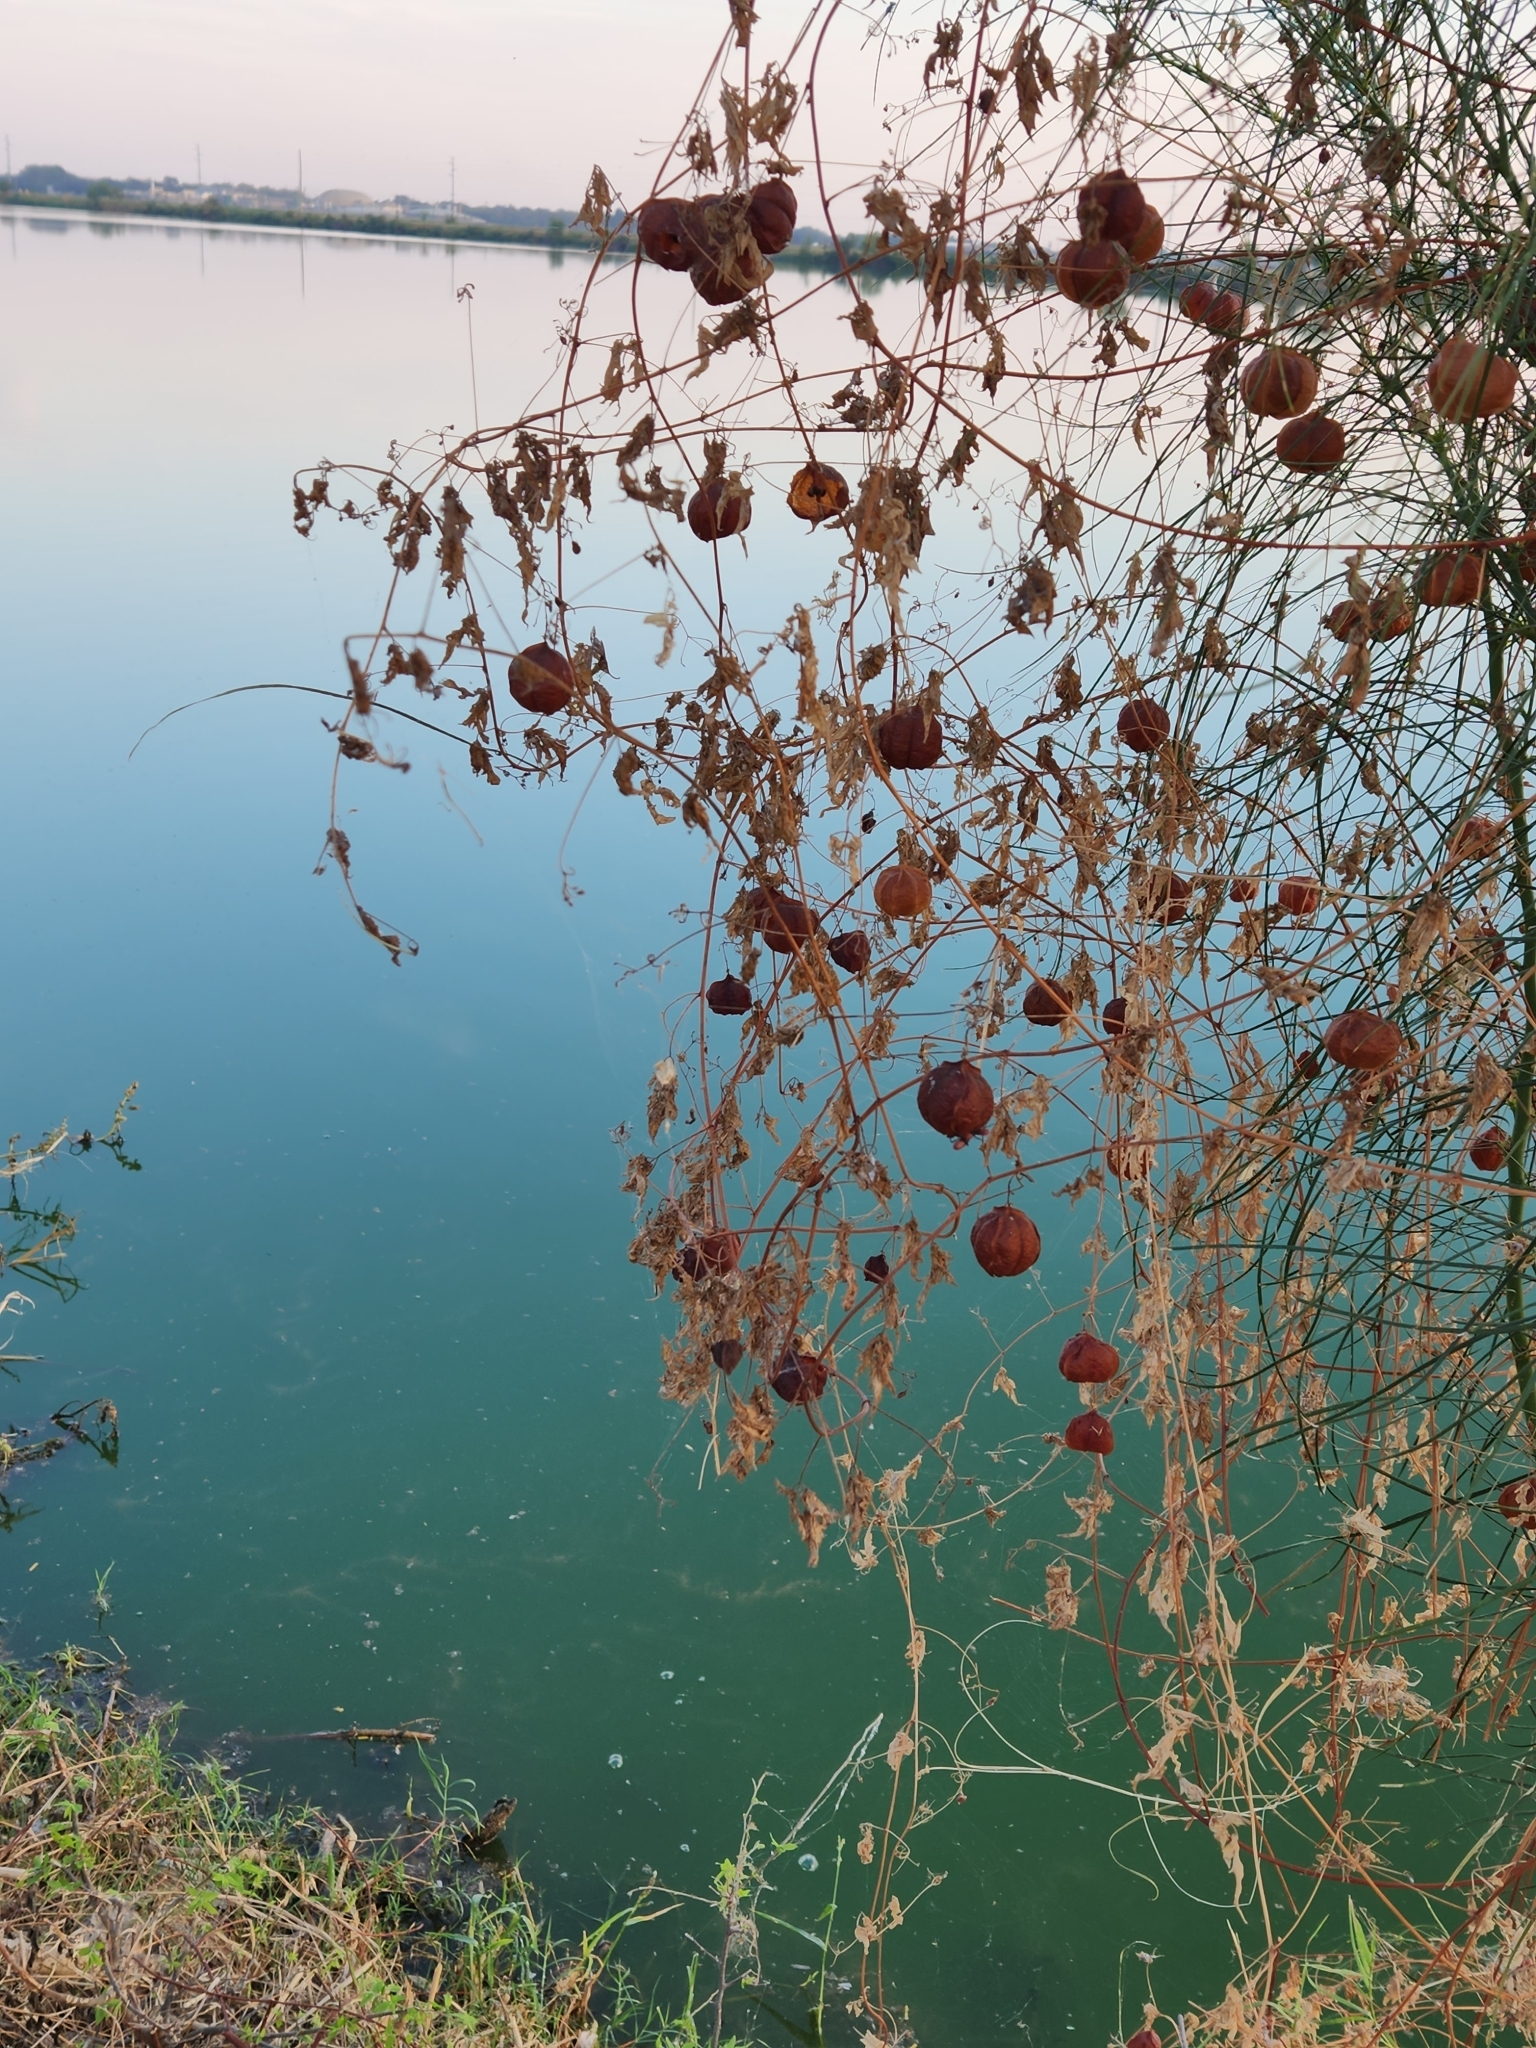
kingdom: Plantae
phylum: Tracheophyta
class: Magnoliopsida
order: Sapindales
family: Sapindaceae
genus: Cardiospermum
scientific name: Cardiospermum halicacabum
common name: Balloon vine
